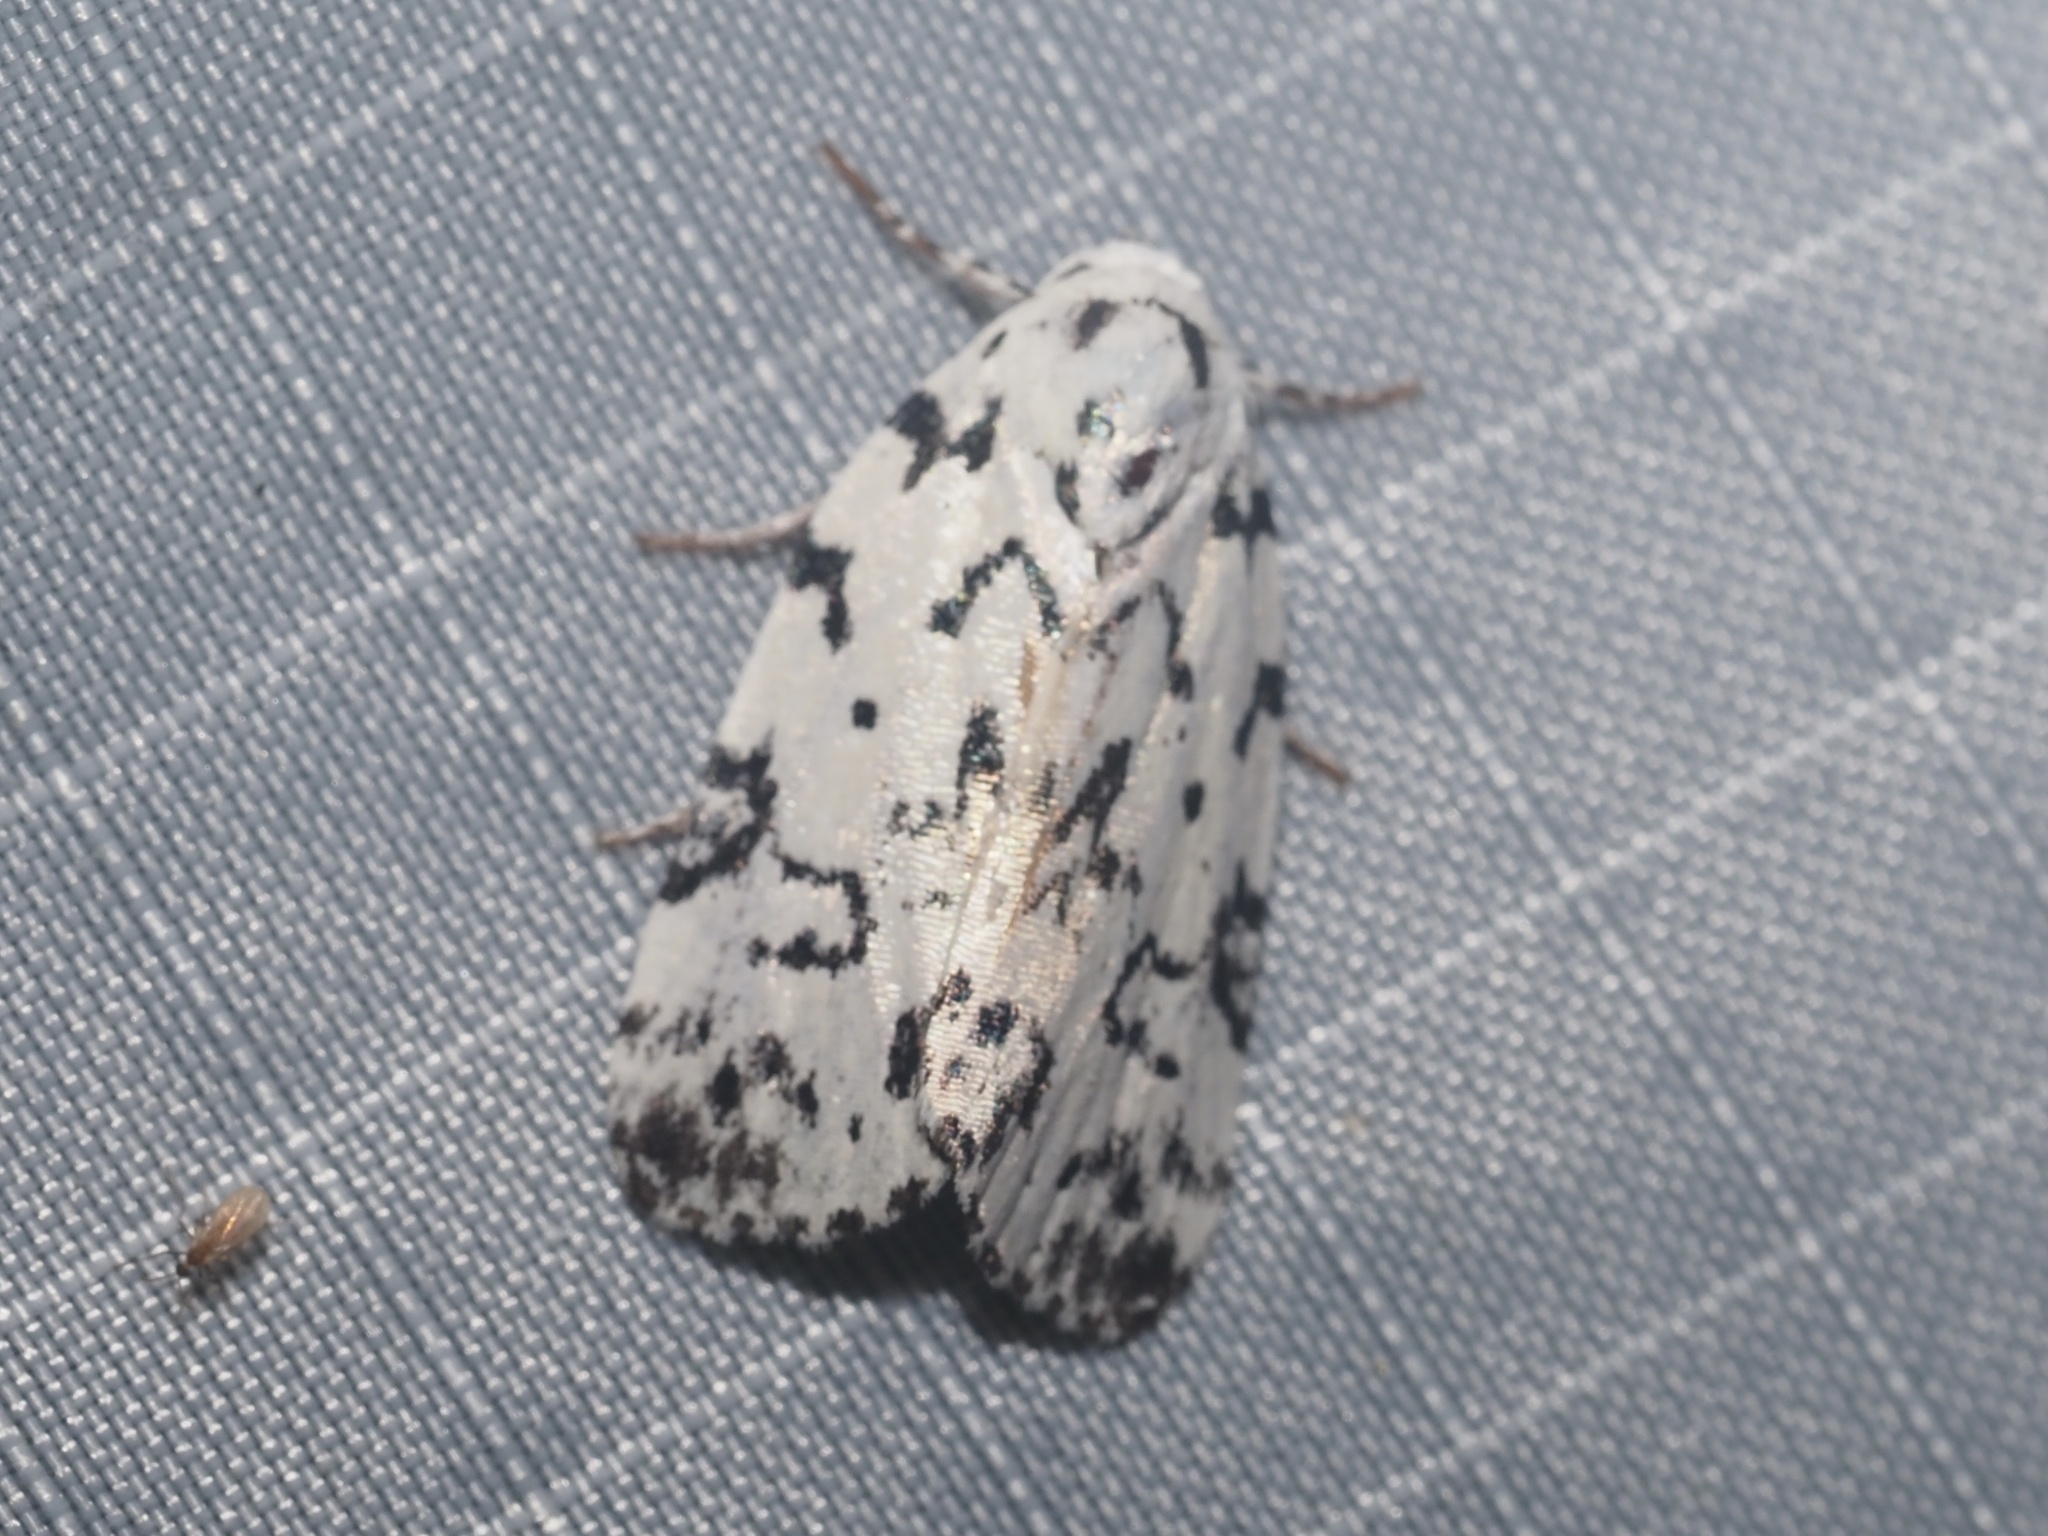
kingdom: Animalia
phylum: Arthropoda
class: Insecta
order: Lepidoptera
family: Noctuidae
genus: Polygrammate
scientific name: Polygrammate hebraeicum
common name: Hebrew moth
